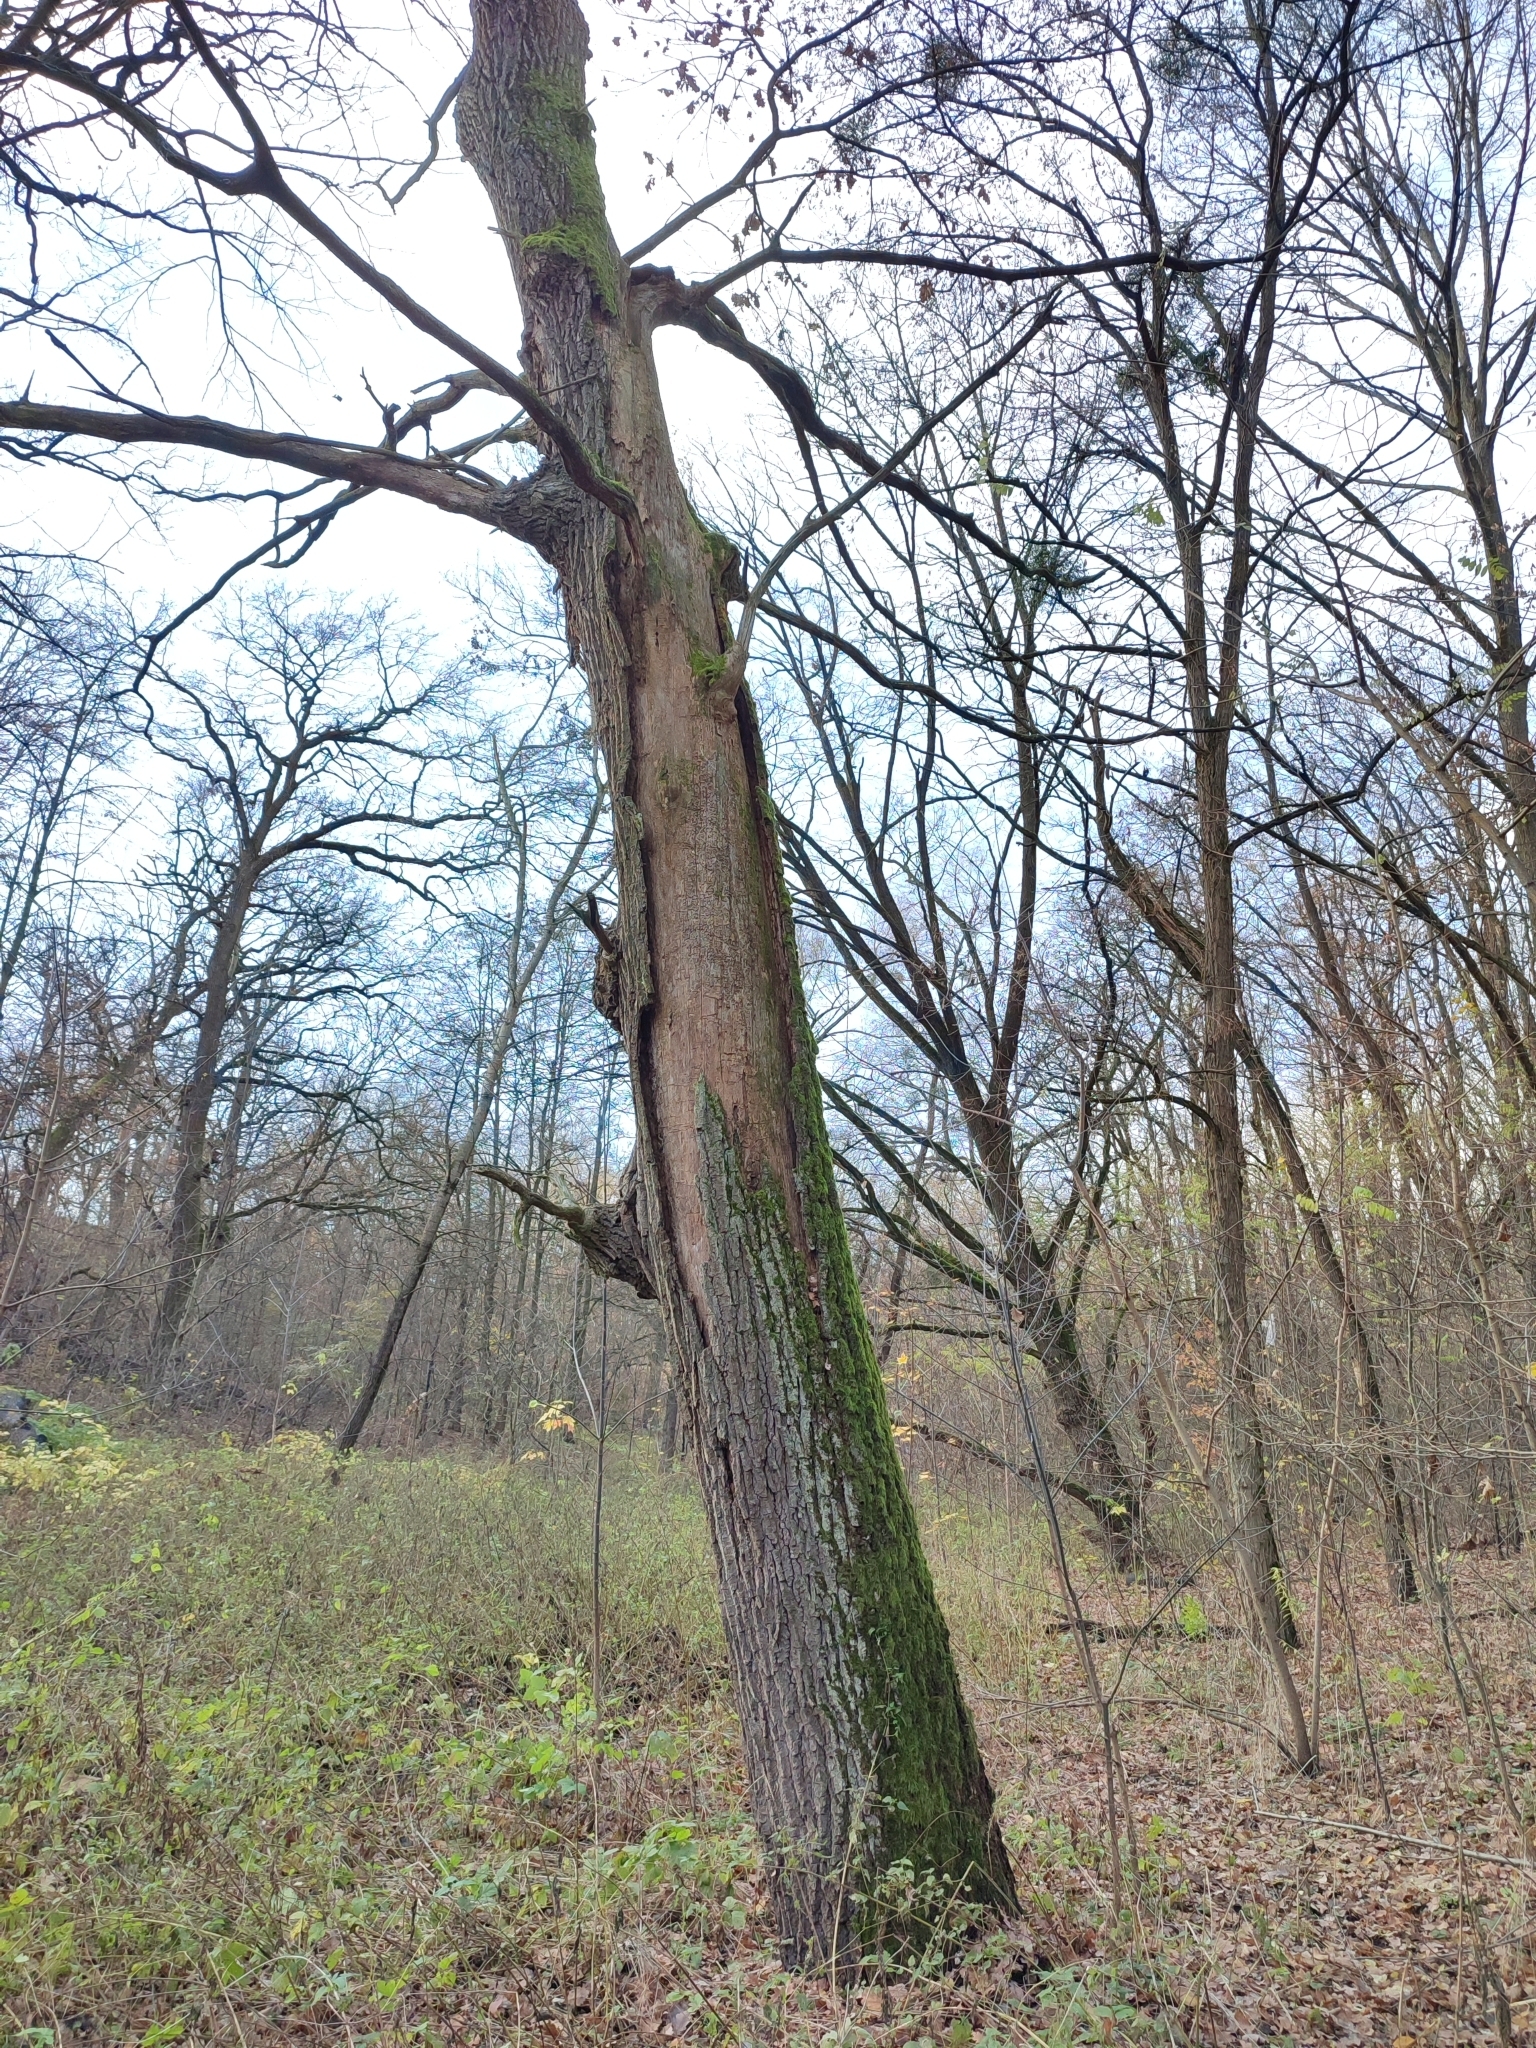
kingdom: Plantae
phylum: Tracheophyta
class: Magnoliopsida
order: Fagales
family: Fagaceae
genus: Quercus
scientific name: Quercus robur
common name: Pedunculate oak
